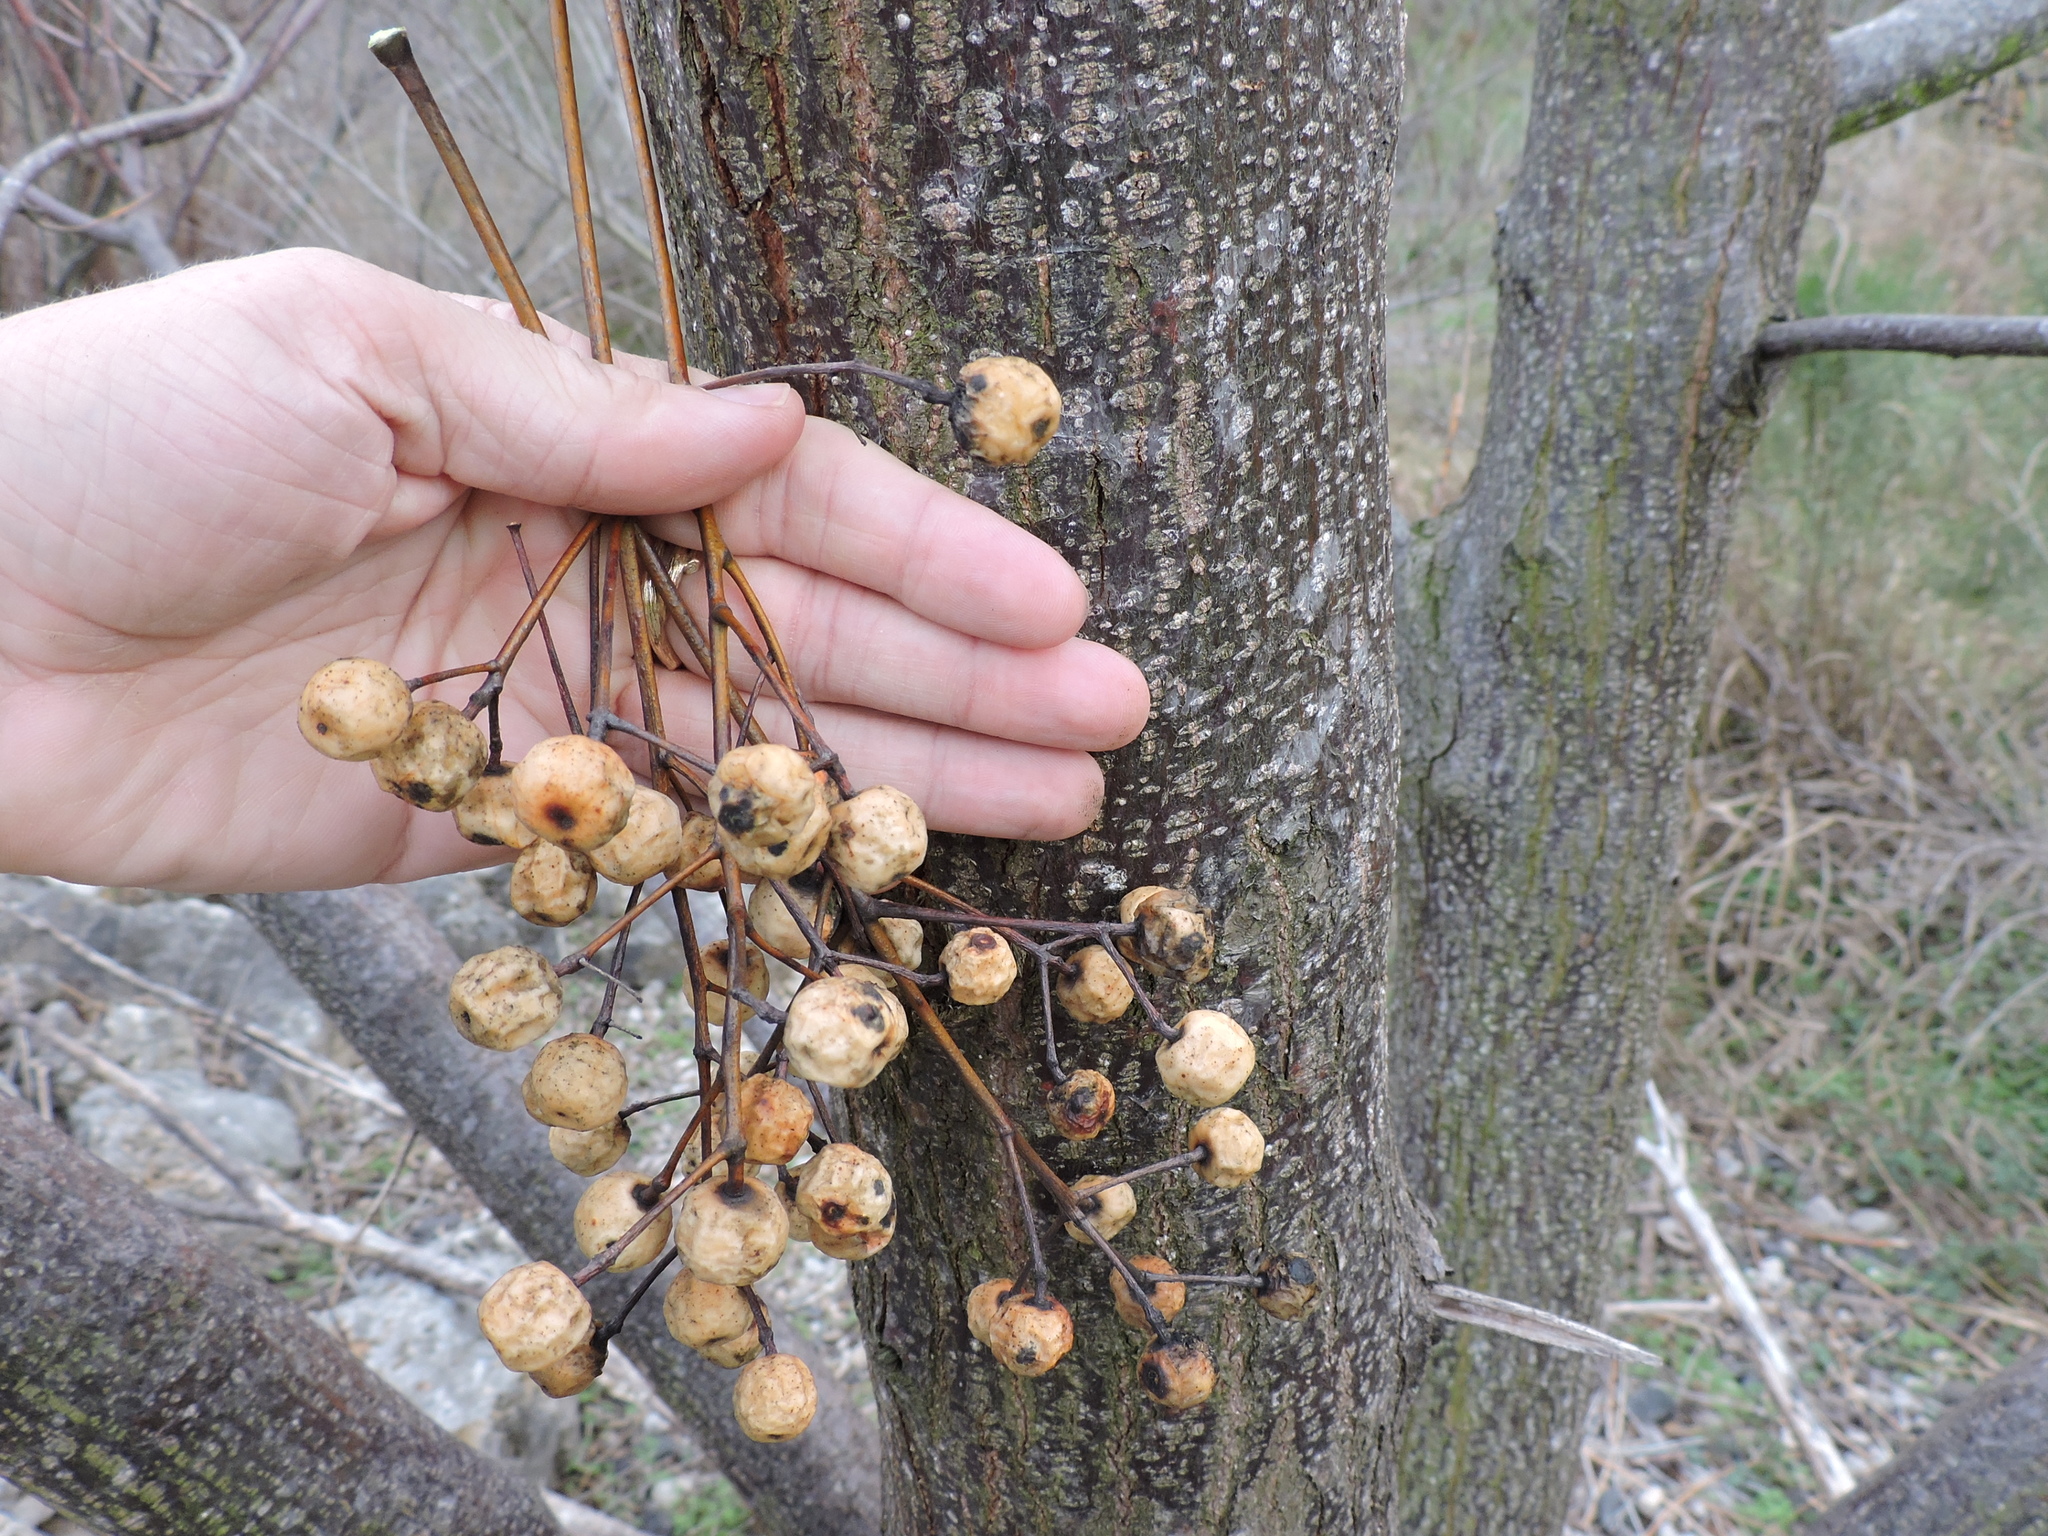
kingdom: Plantae
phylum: Tracheophyta
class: Magnoliopsida
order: Sapindales
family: Meliaceae
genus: Melia
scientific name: Melia azedarach
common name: Chinaberrytree
